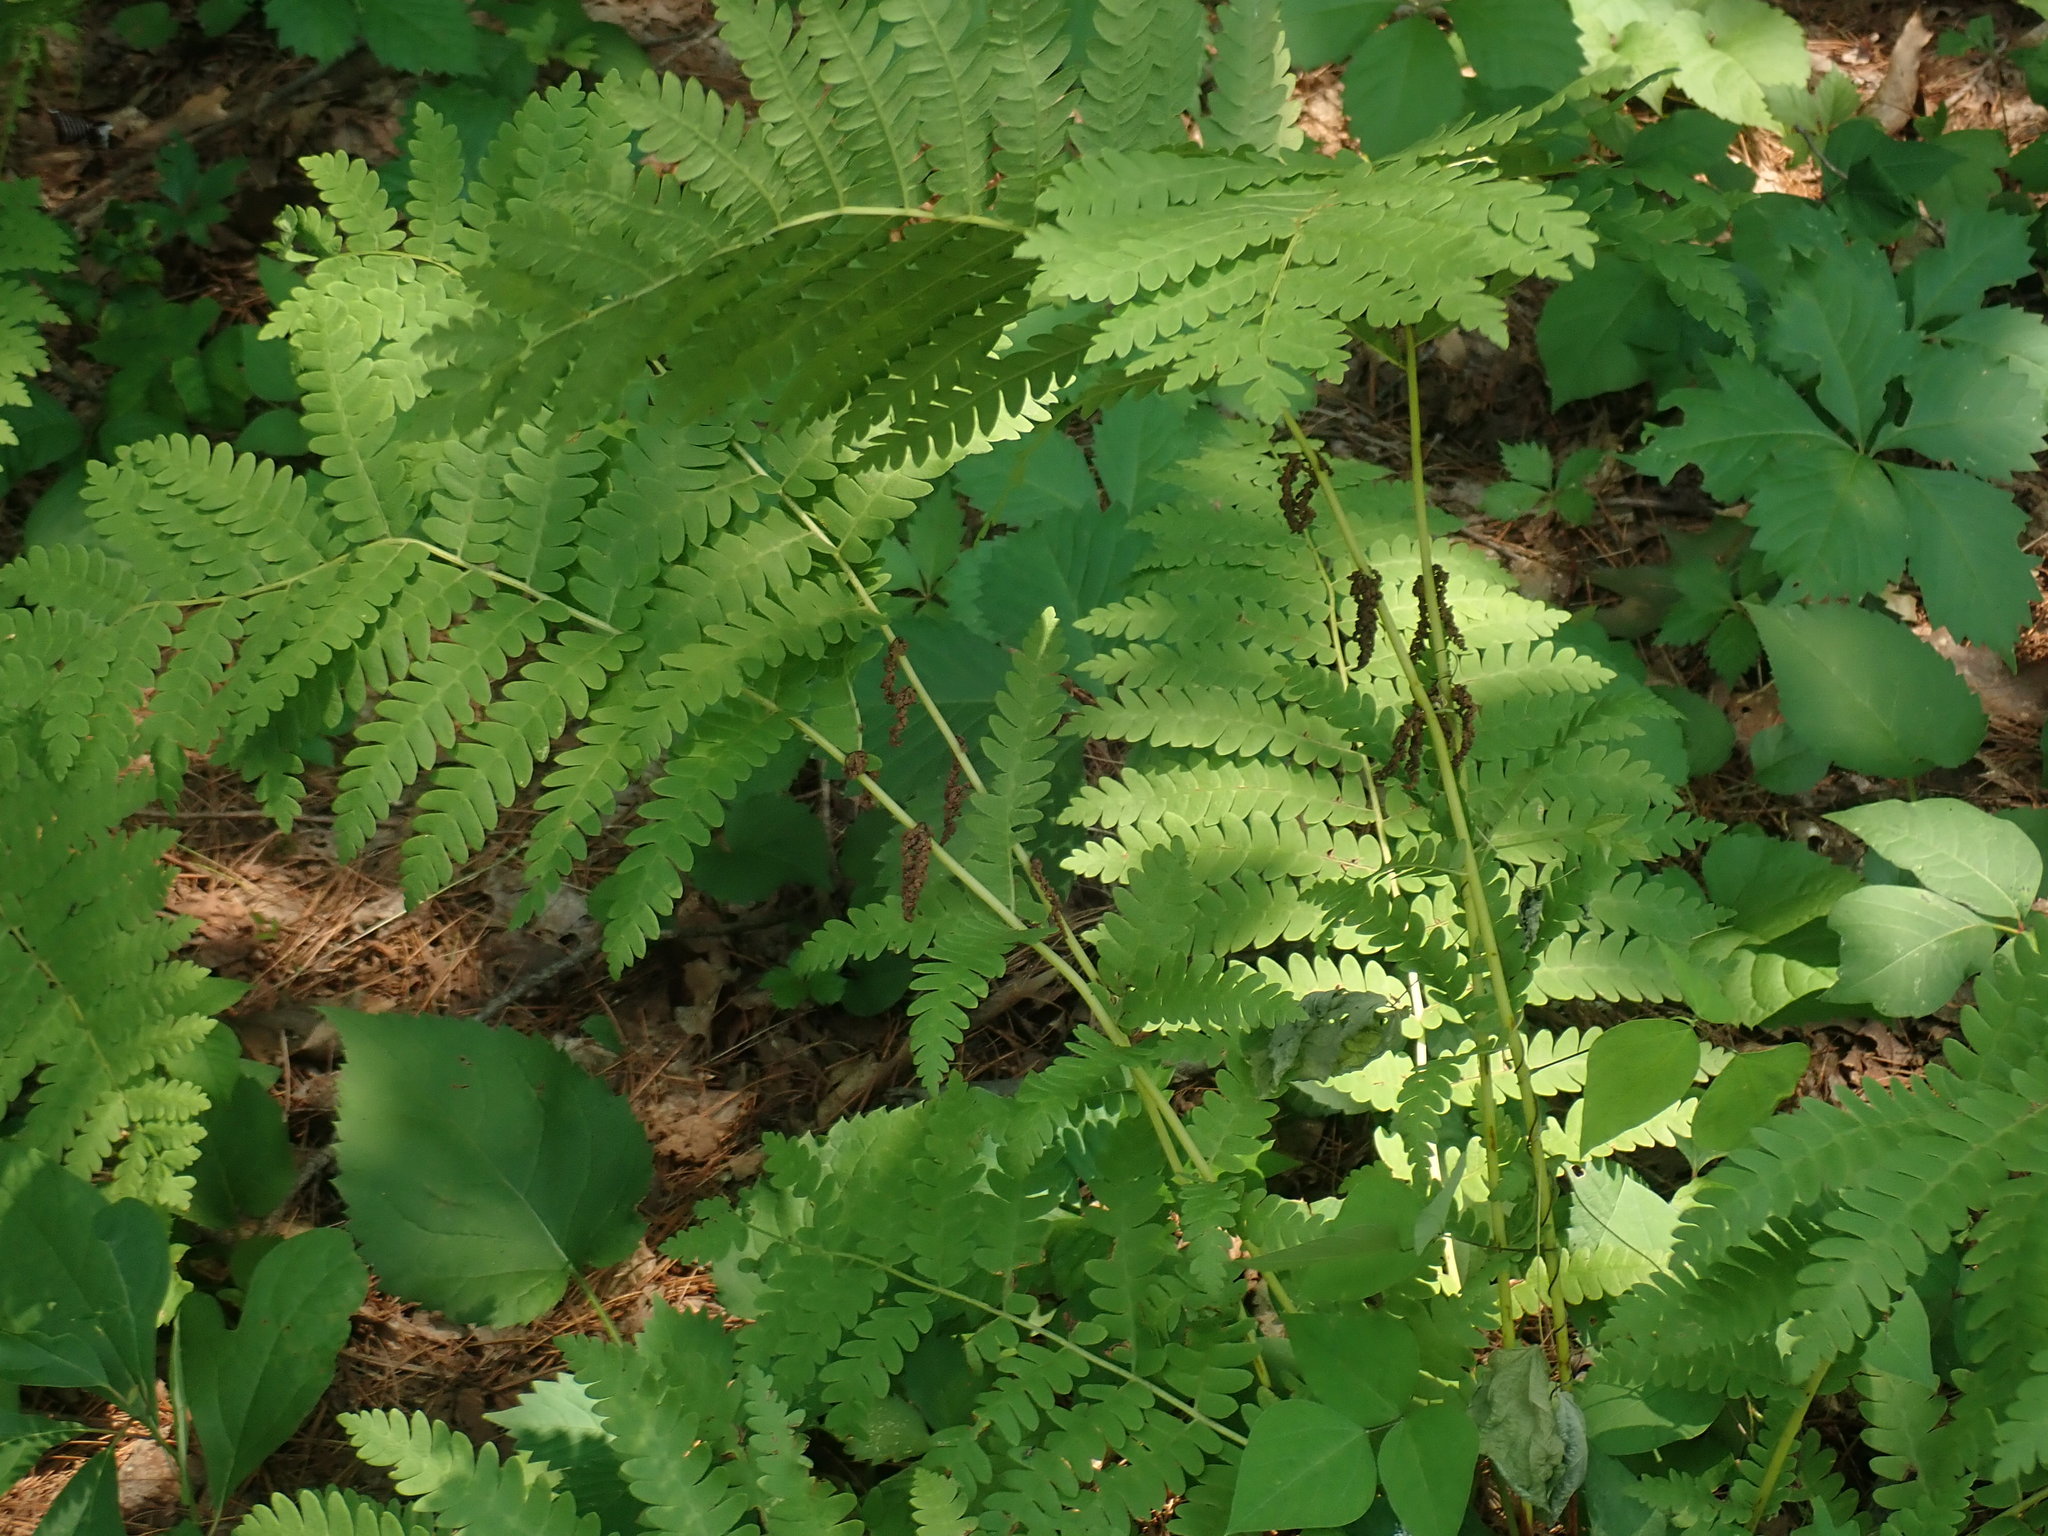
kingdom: Plantae
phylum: Tracheophyta
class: Polypodiopsida
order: Osmundales
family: Osmundaceae
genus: Claytosmunda
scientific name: Claytosmunda claytoniana
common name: Clayton's fern
